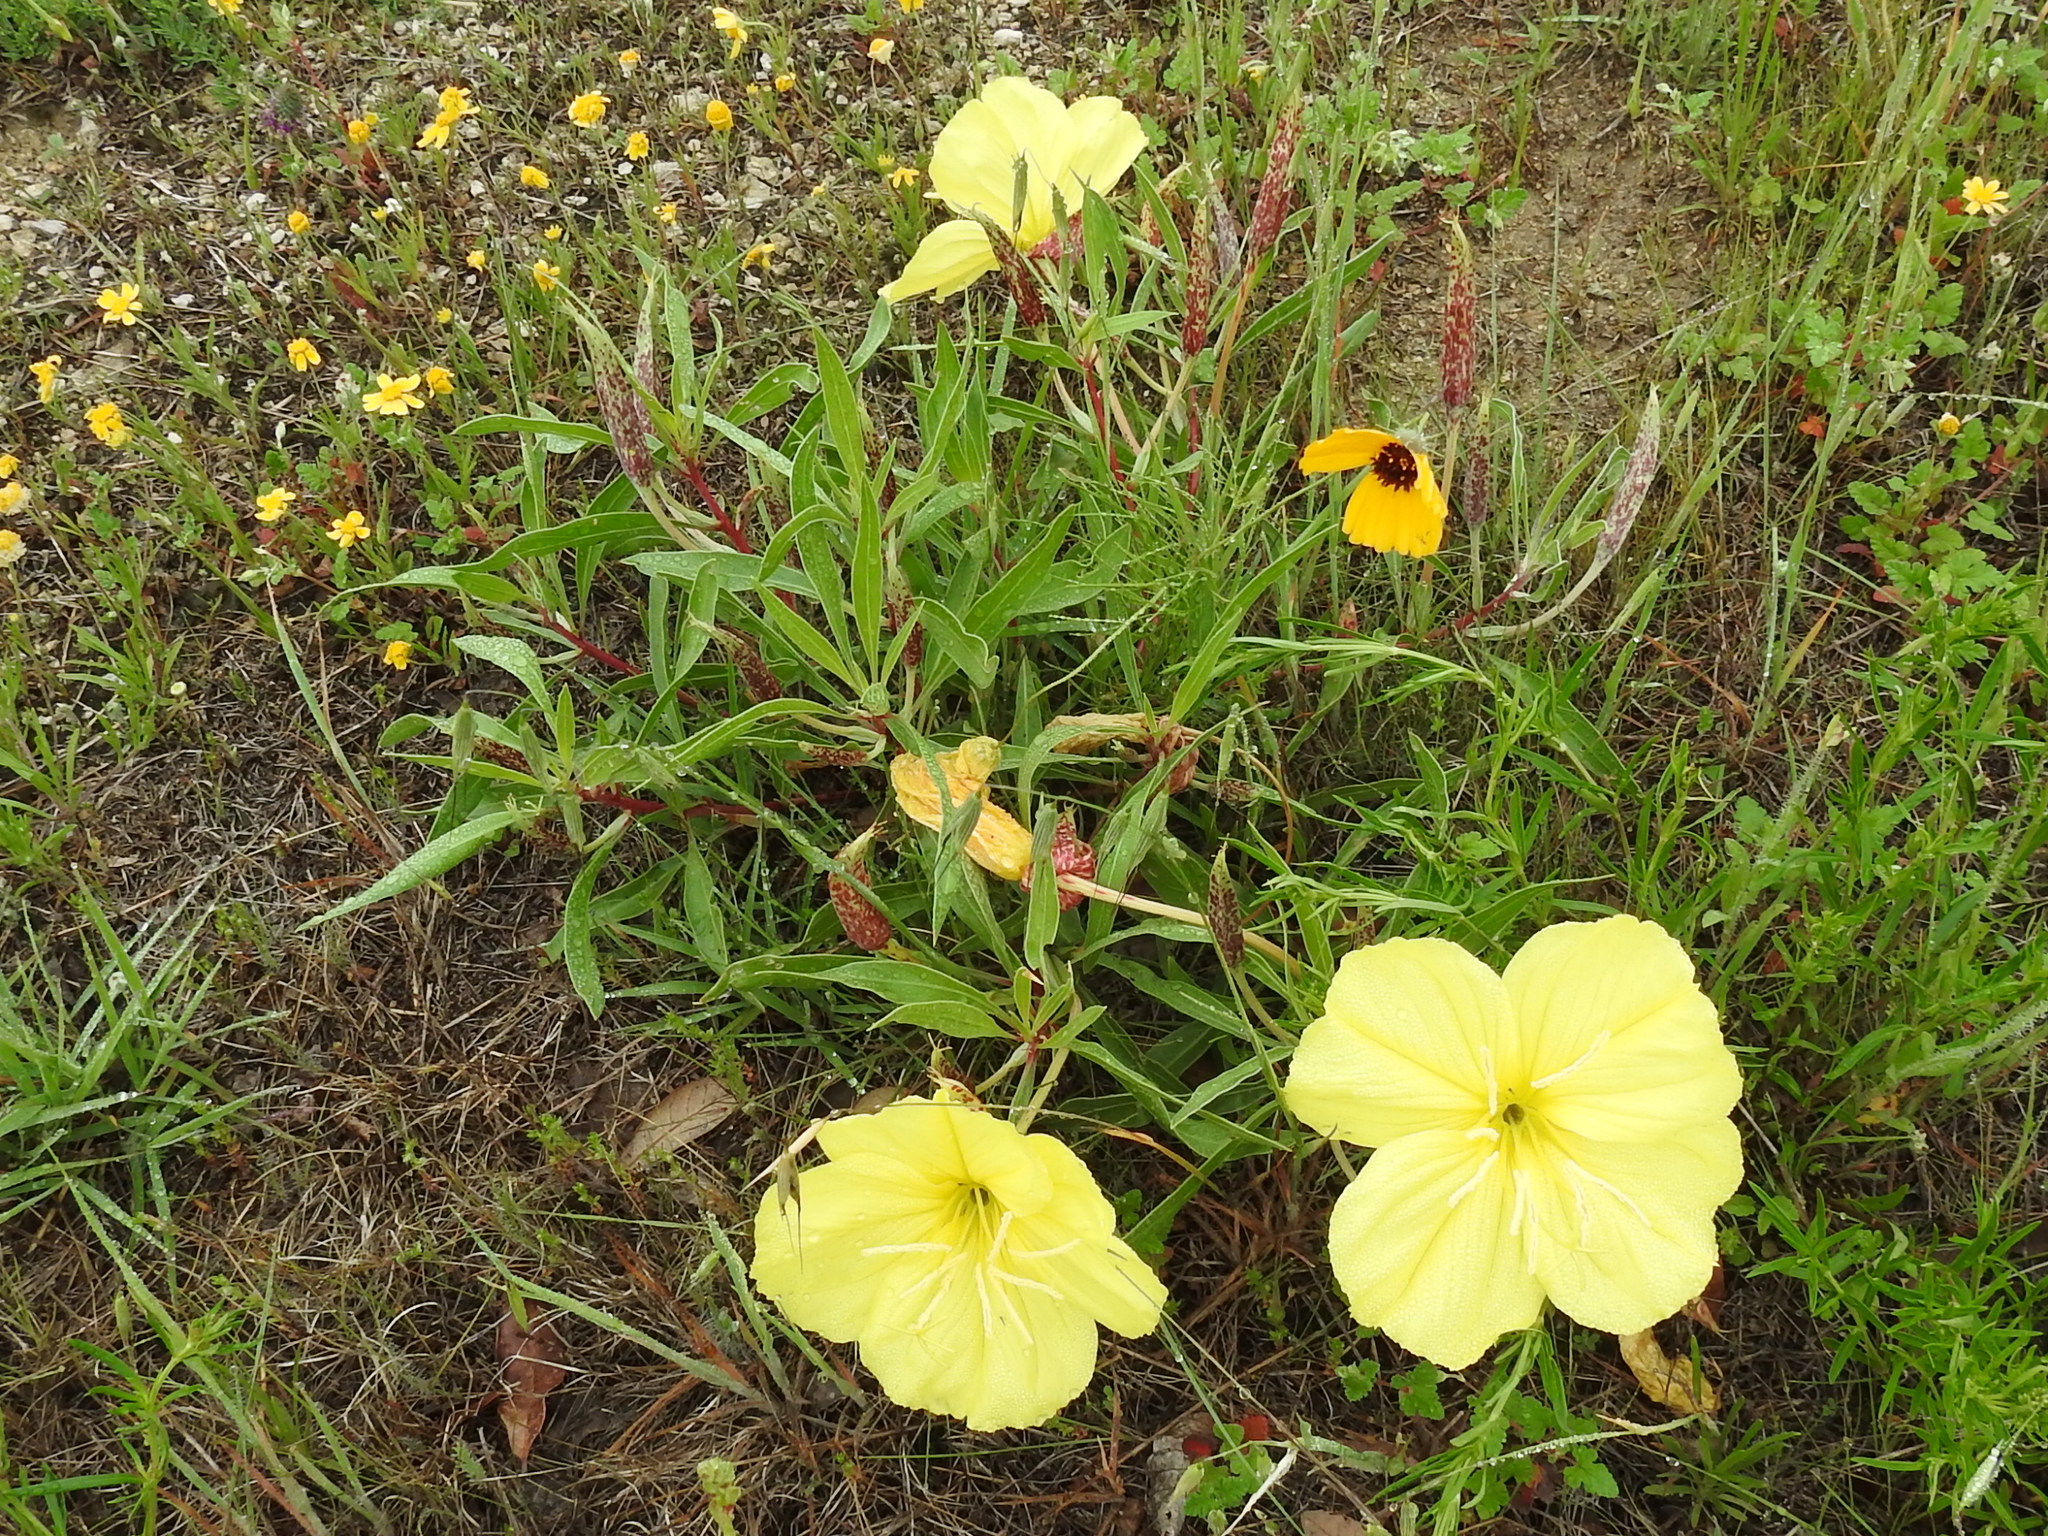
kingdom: Plantae
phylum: Tracheophyta
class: Magnoliopsida
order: Myrtales
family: Onagraceae
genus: Oenothera
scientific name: Oenothera macrocarpa
